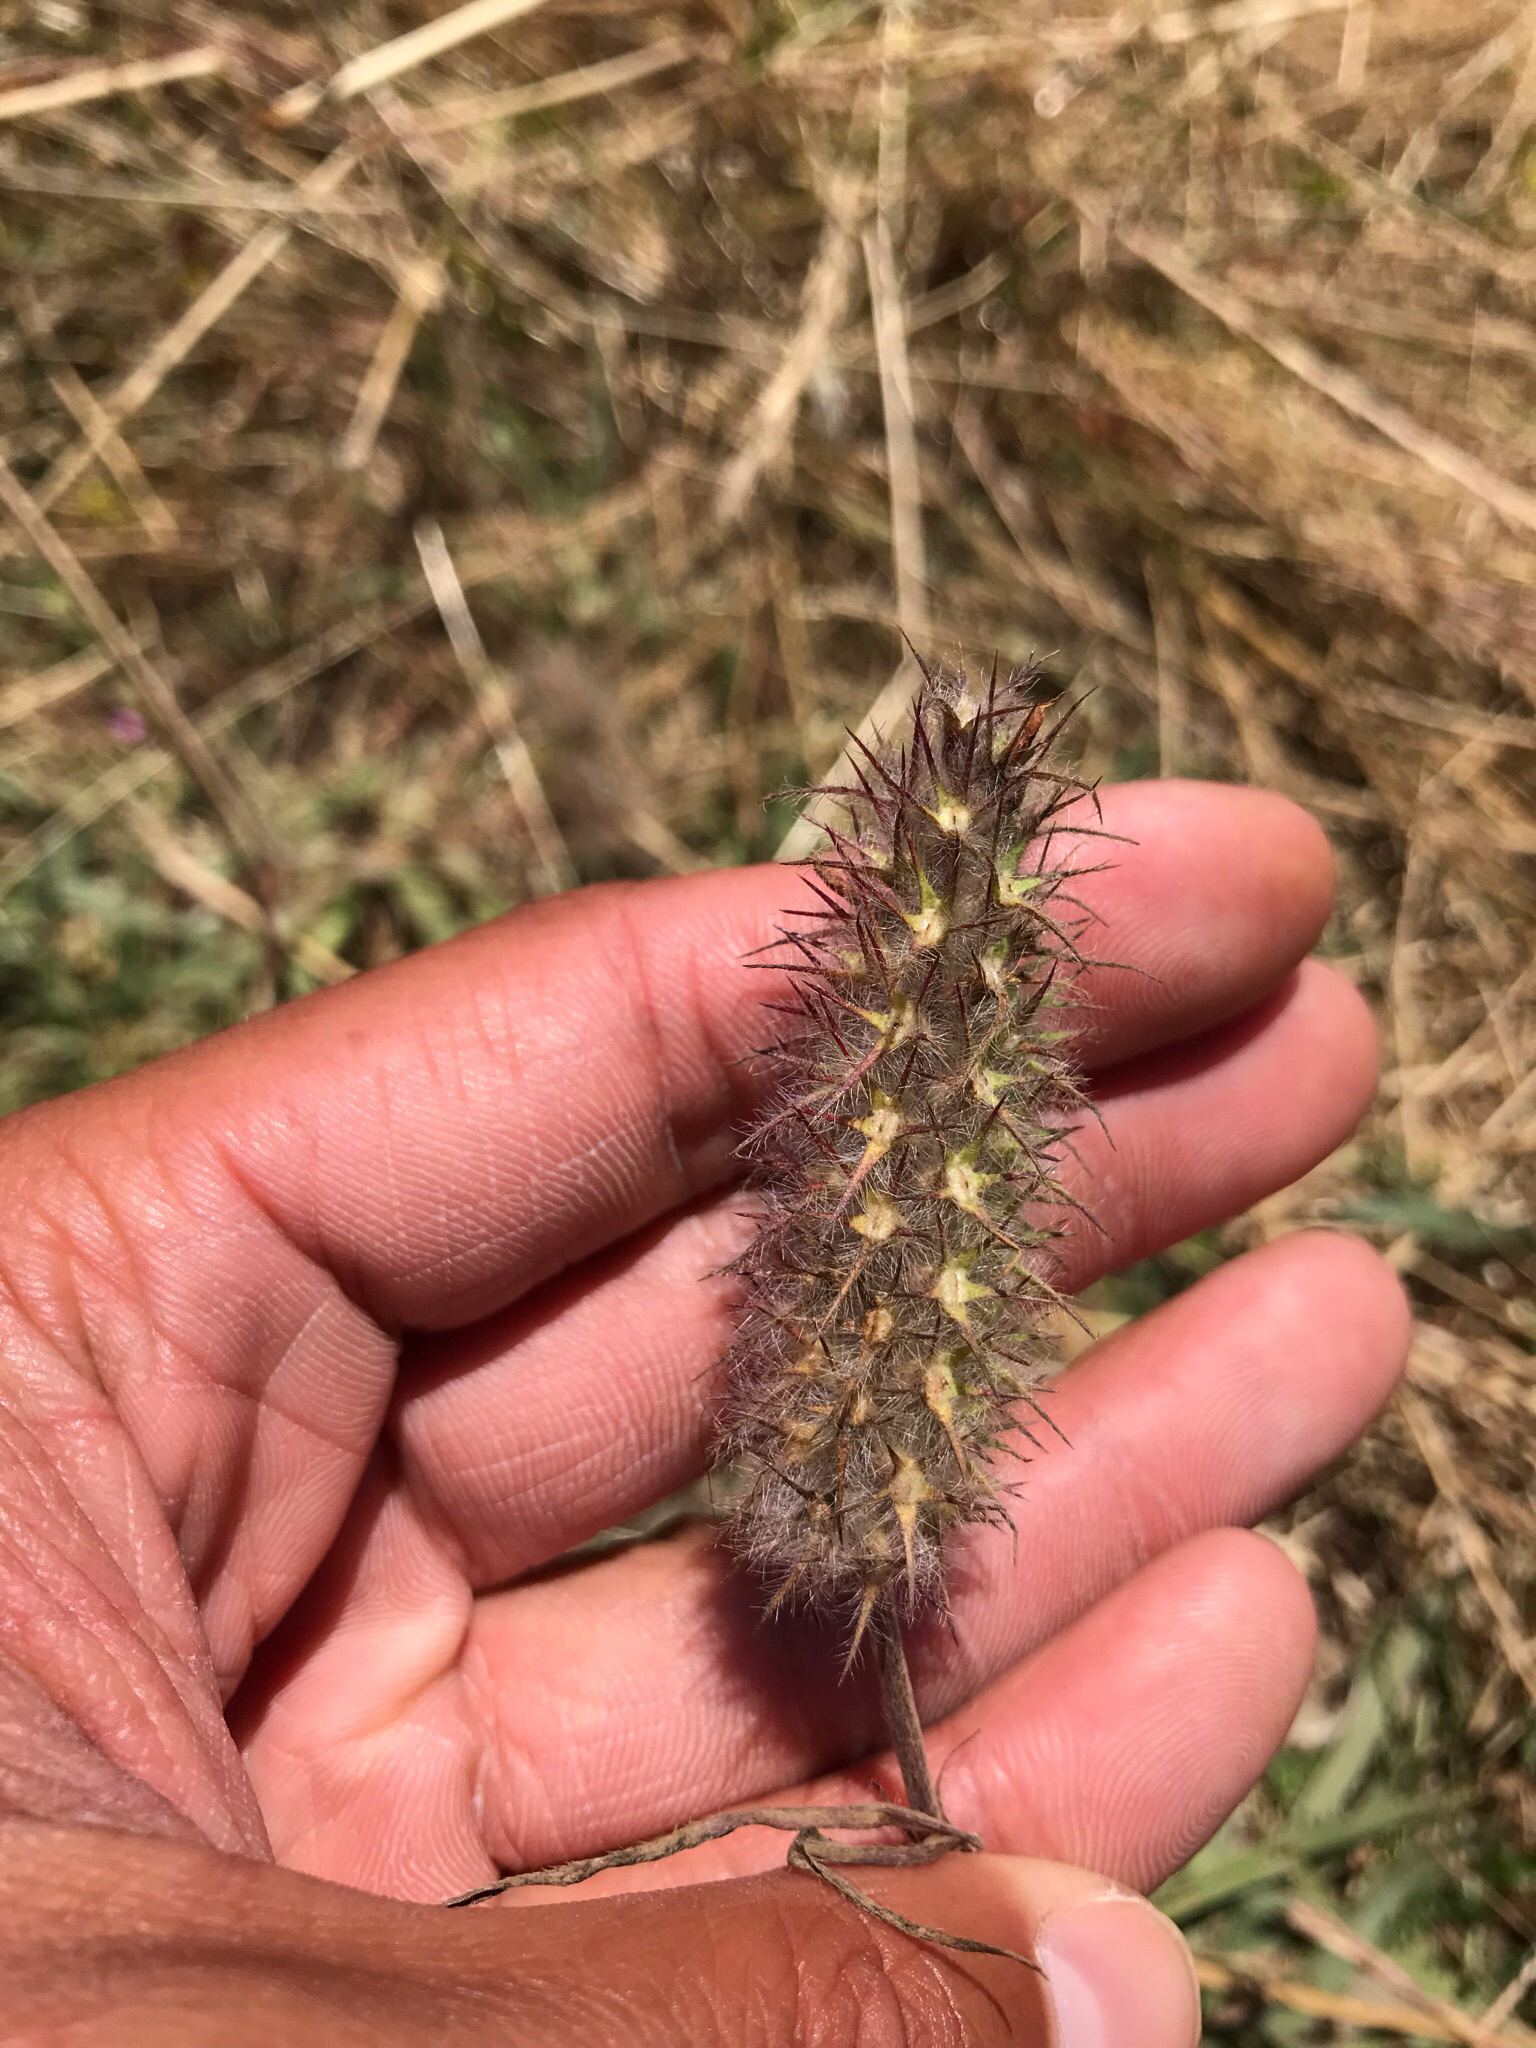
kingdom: Plantae
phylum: Tracheophyta
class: Magnoliopsida
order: Fabales
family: Fabaceae
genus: Trifolium
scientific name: Trifolium angustifolium
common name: Narrow clover
